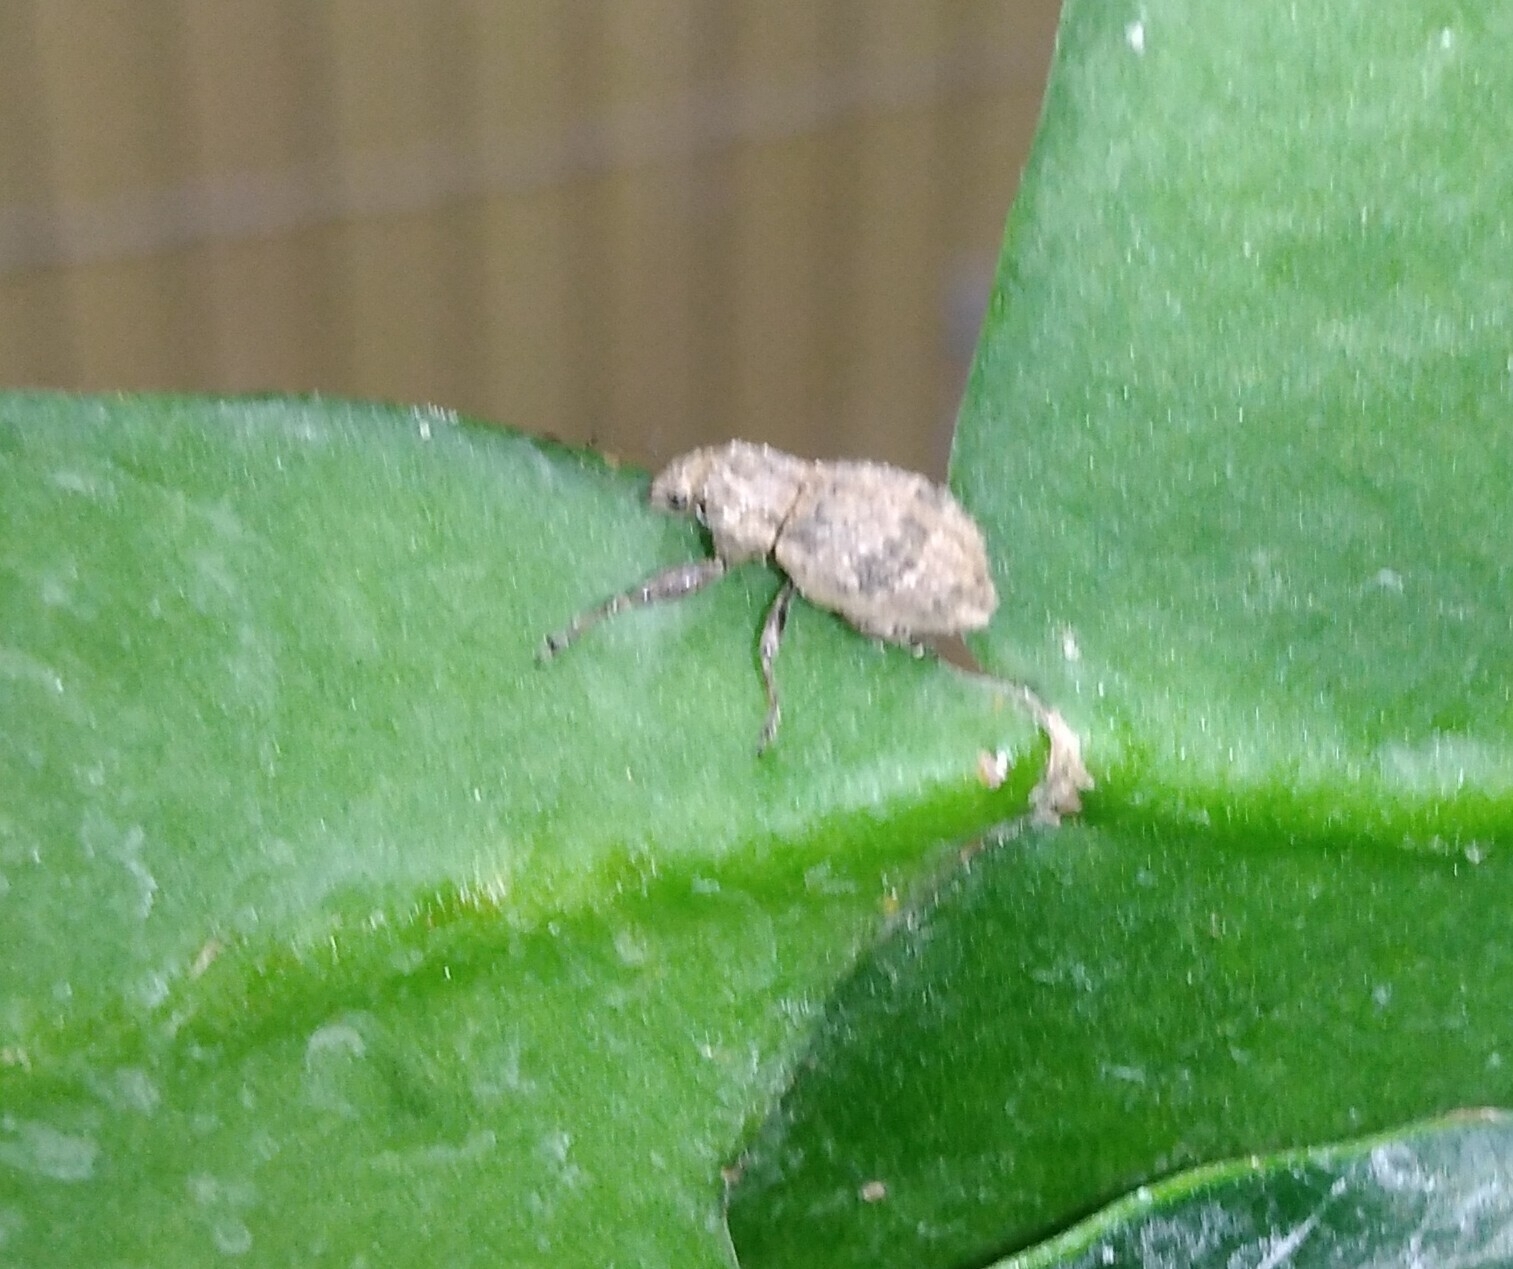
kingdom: Animalia
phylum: Arthropoda
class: Insecta
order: Coleoptera
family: Curculionidae
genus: Pantomorus
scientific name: Pantomorus
